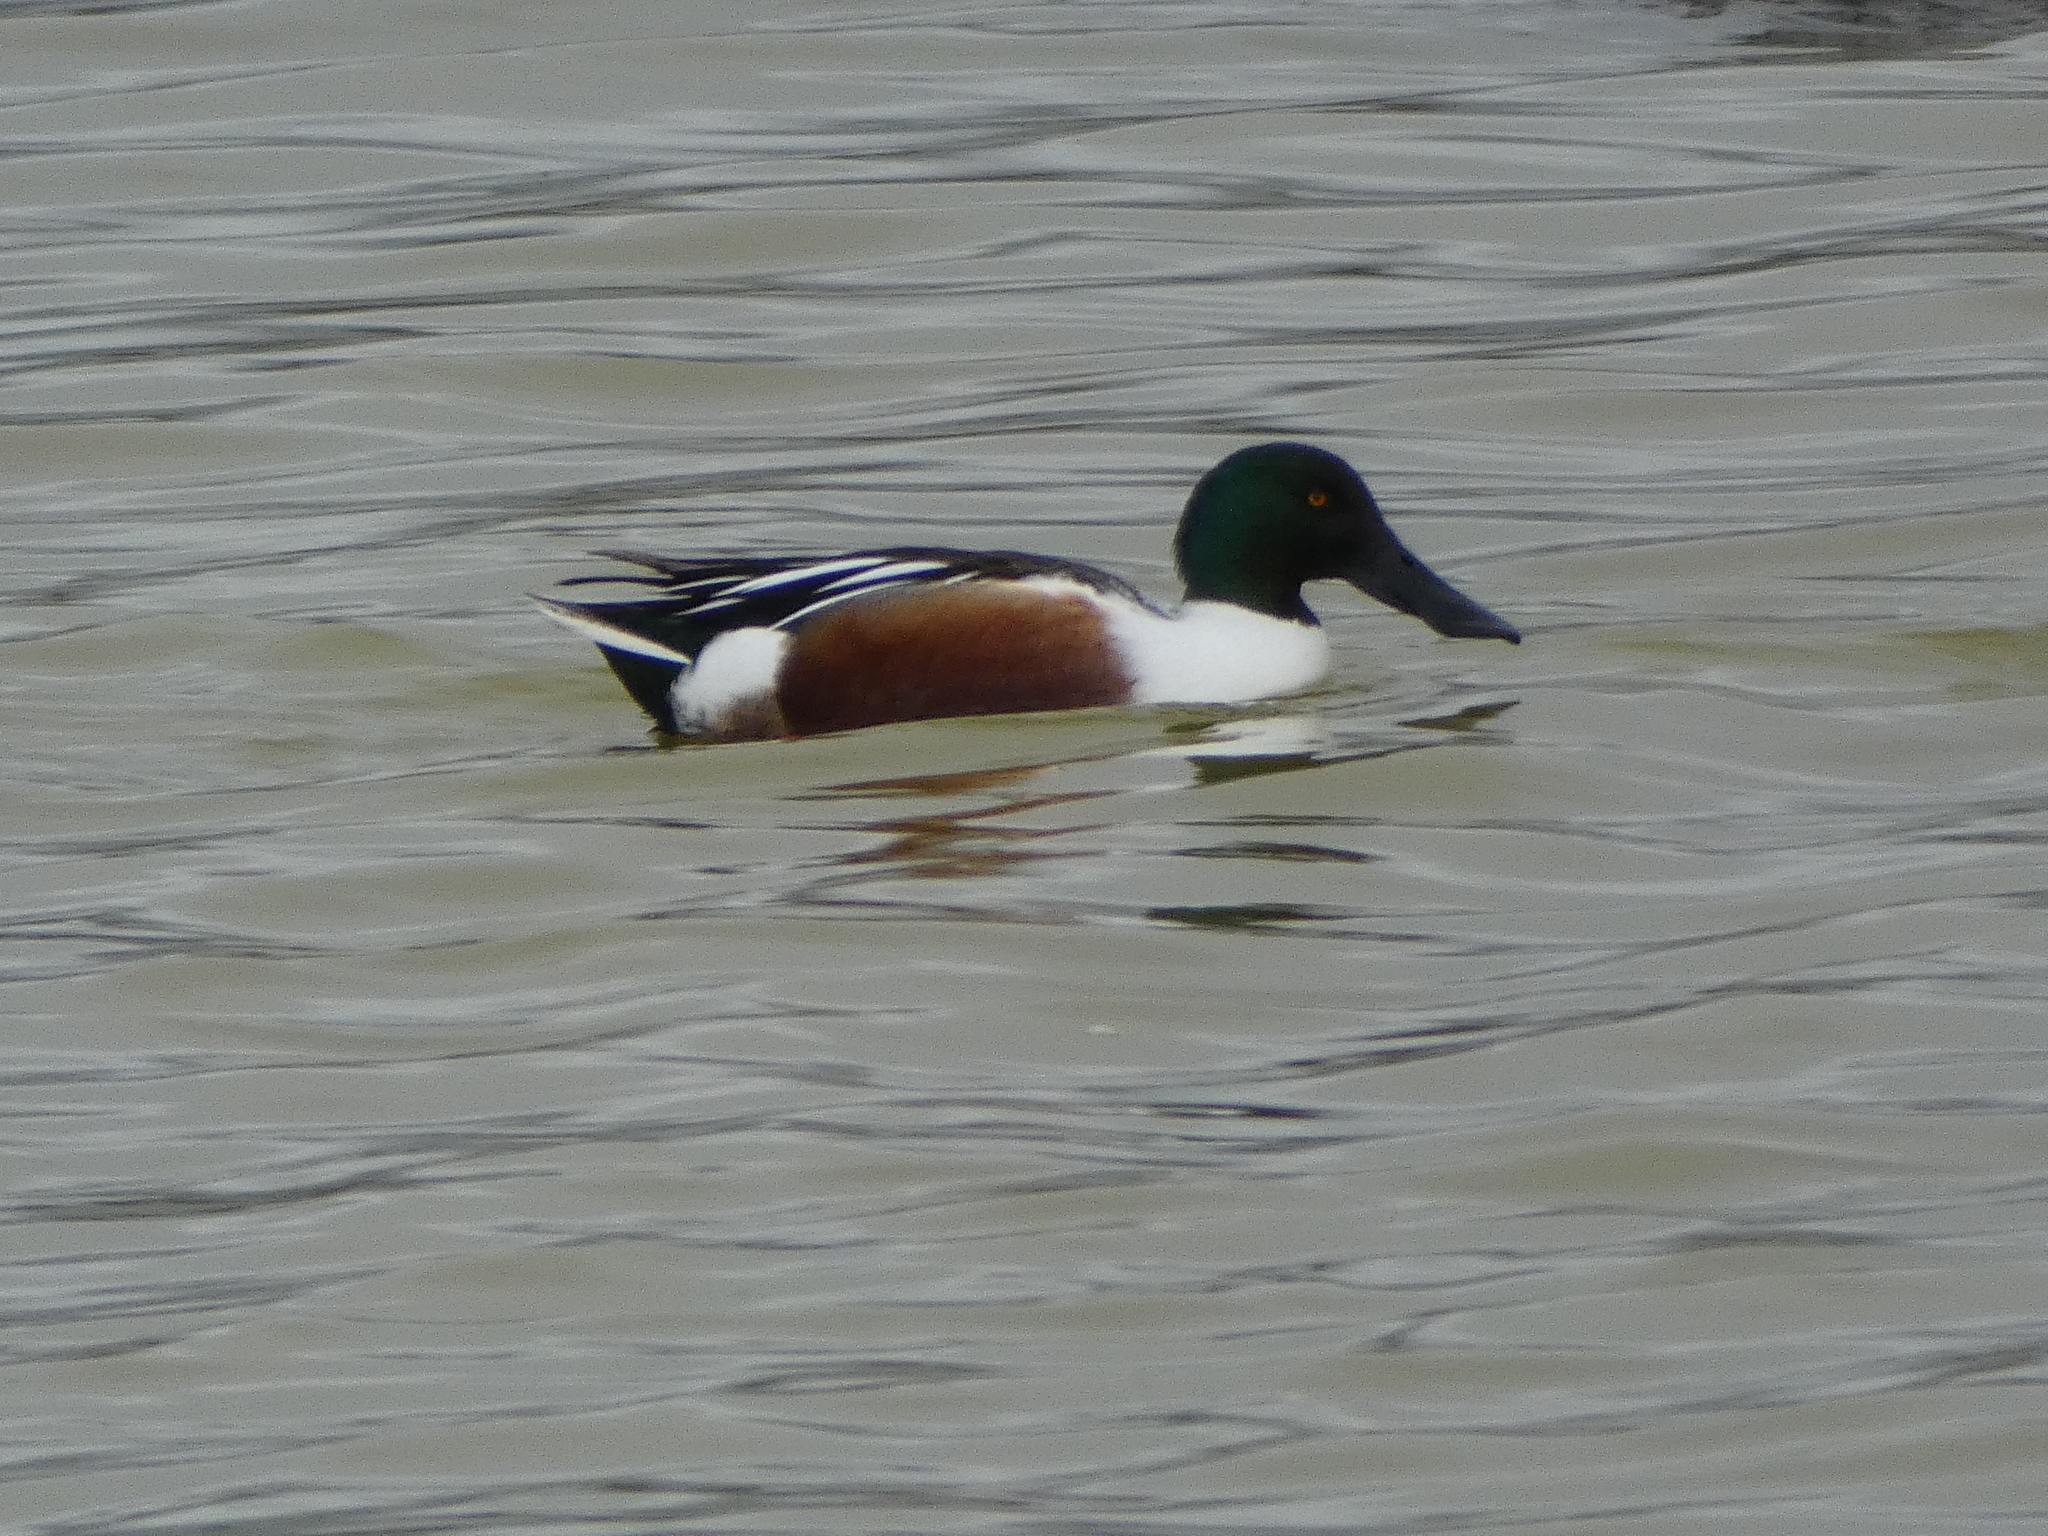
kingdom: Animalia
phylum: Chordata
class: Aves
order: Anseriformes
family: Anatidae
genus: Spatula
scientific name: Spatula clypeata
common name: Northern shoveler
